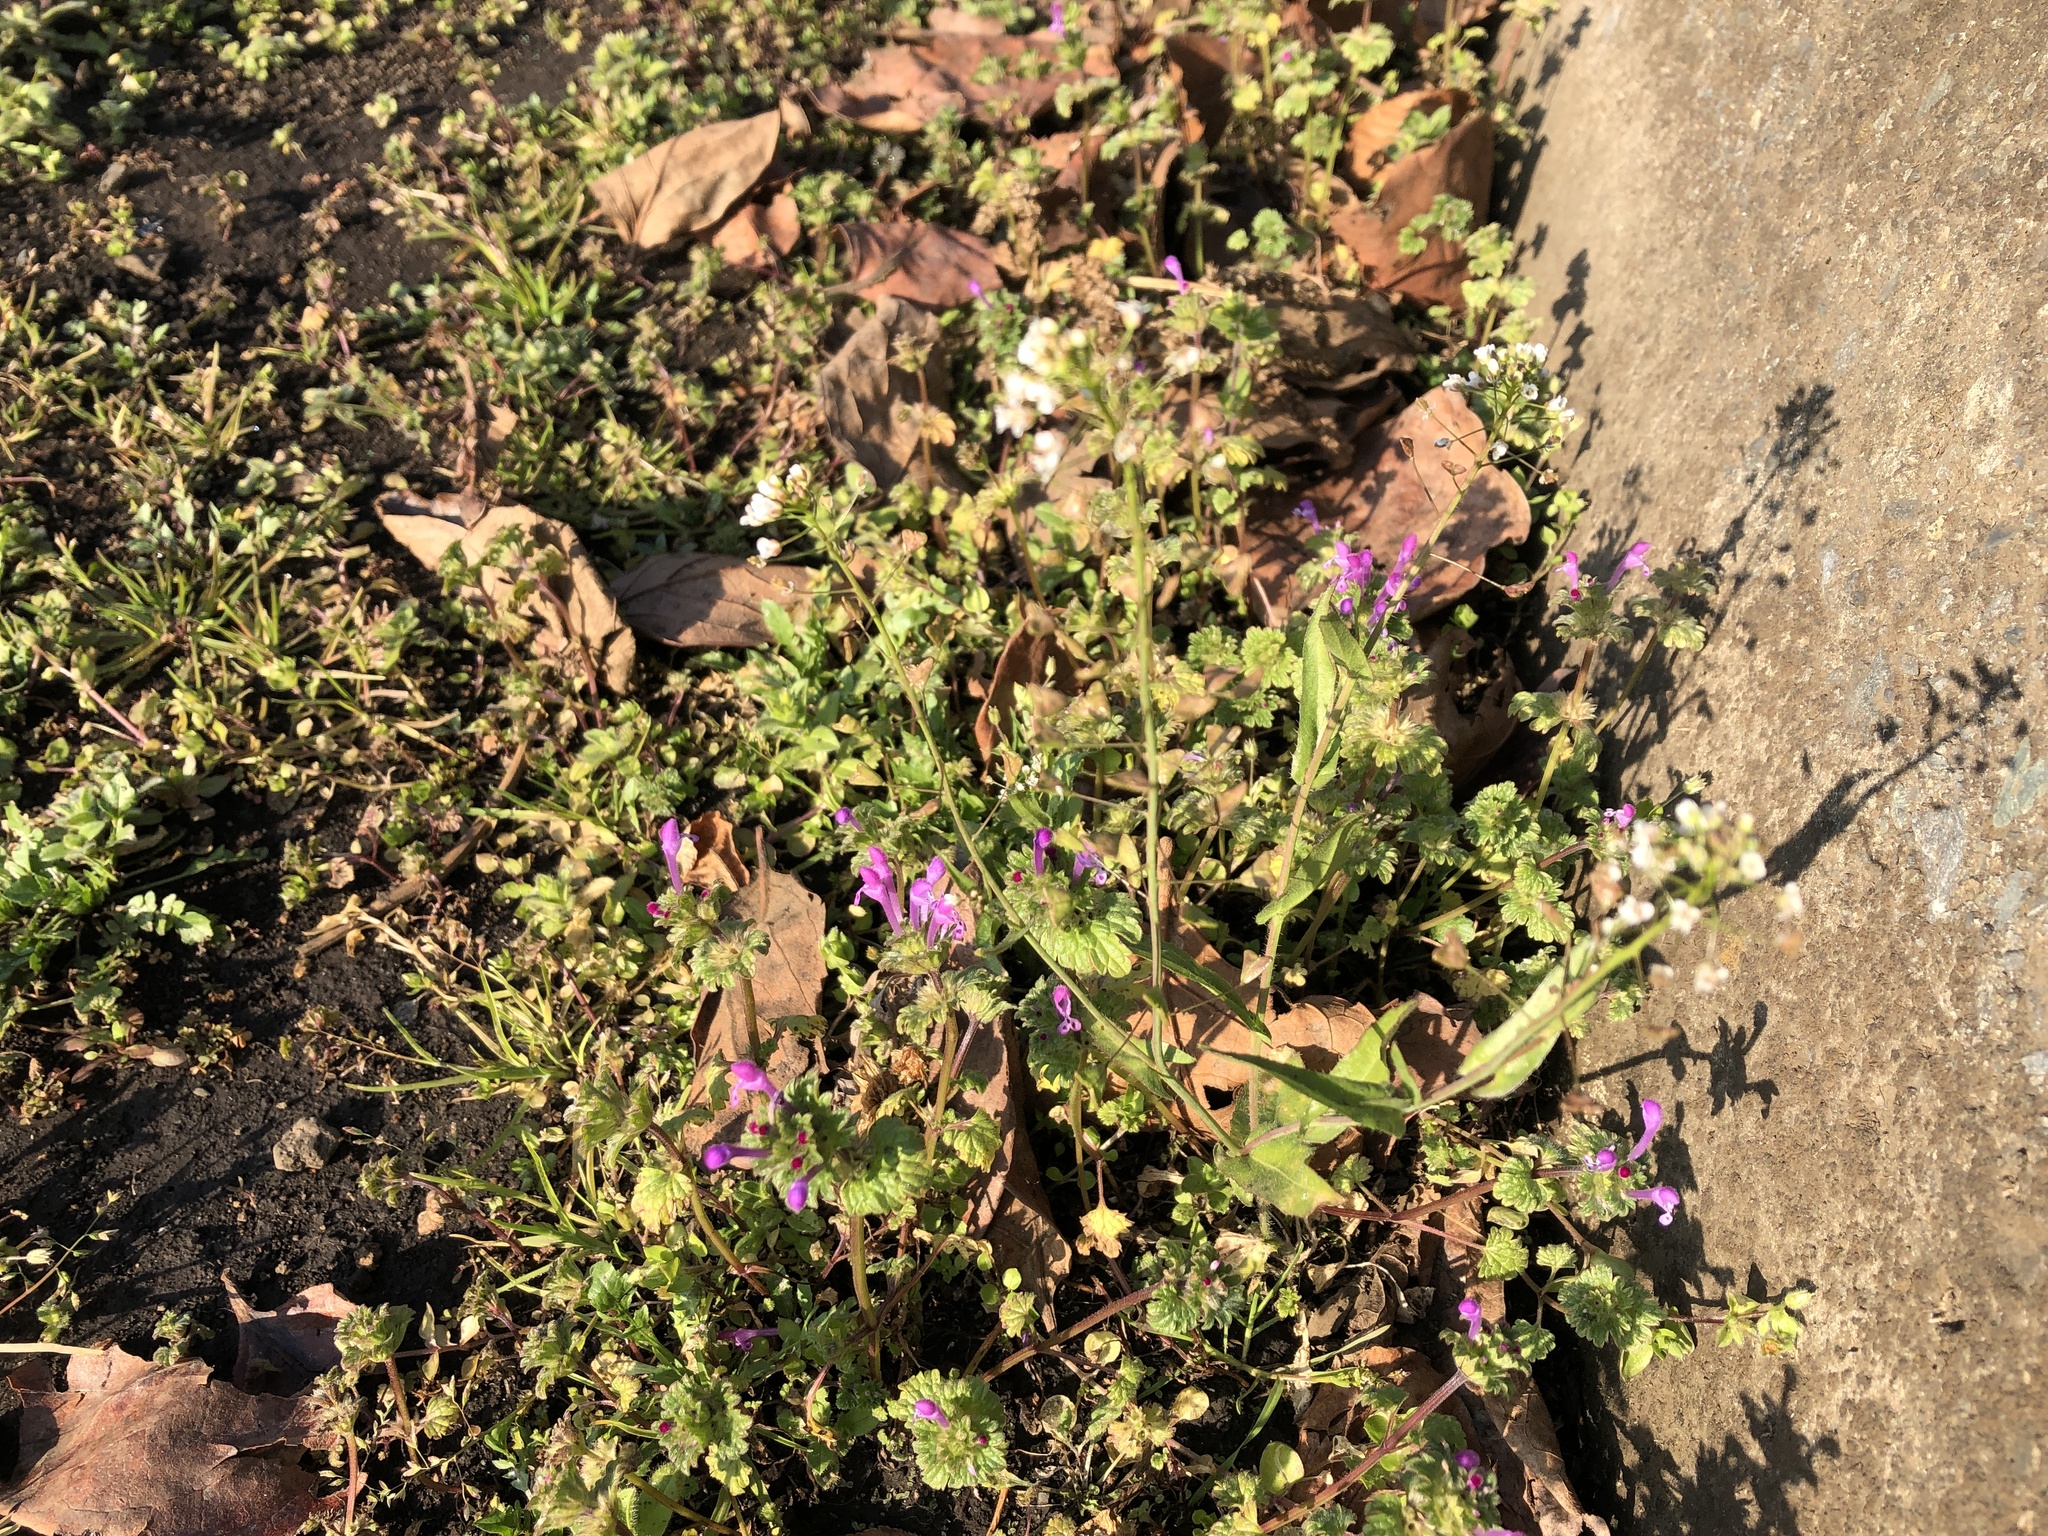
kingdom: Plantae
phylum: Tracheophyta
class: Magnoliopsida
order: Brassicales
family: Brassicaceae
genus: Capsella
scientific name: Capsella bursa-pastoris
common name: Shepherd's purse
